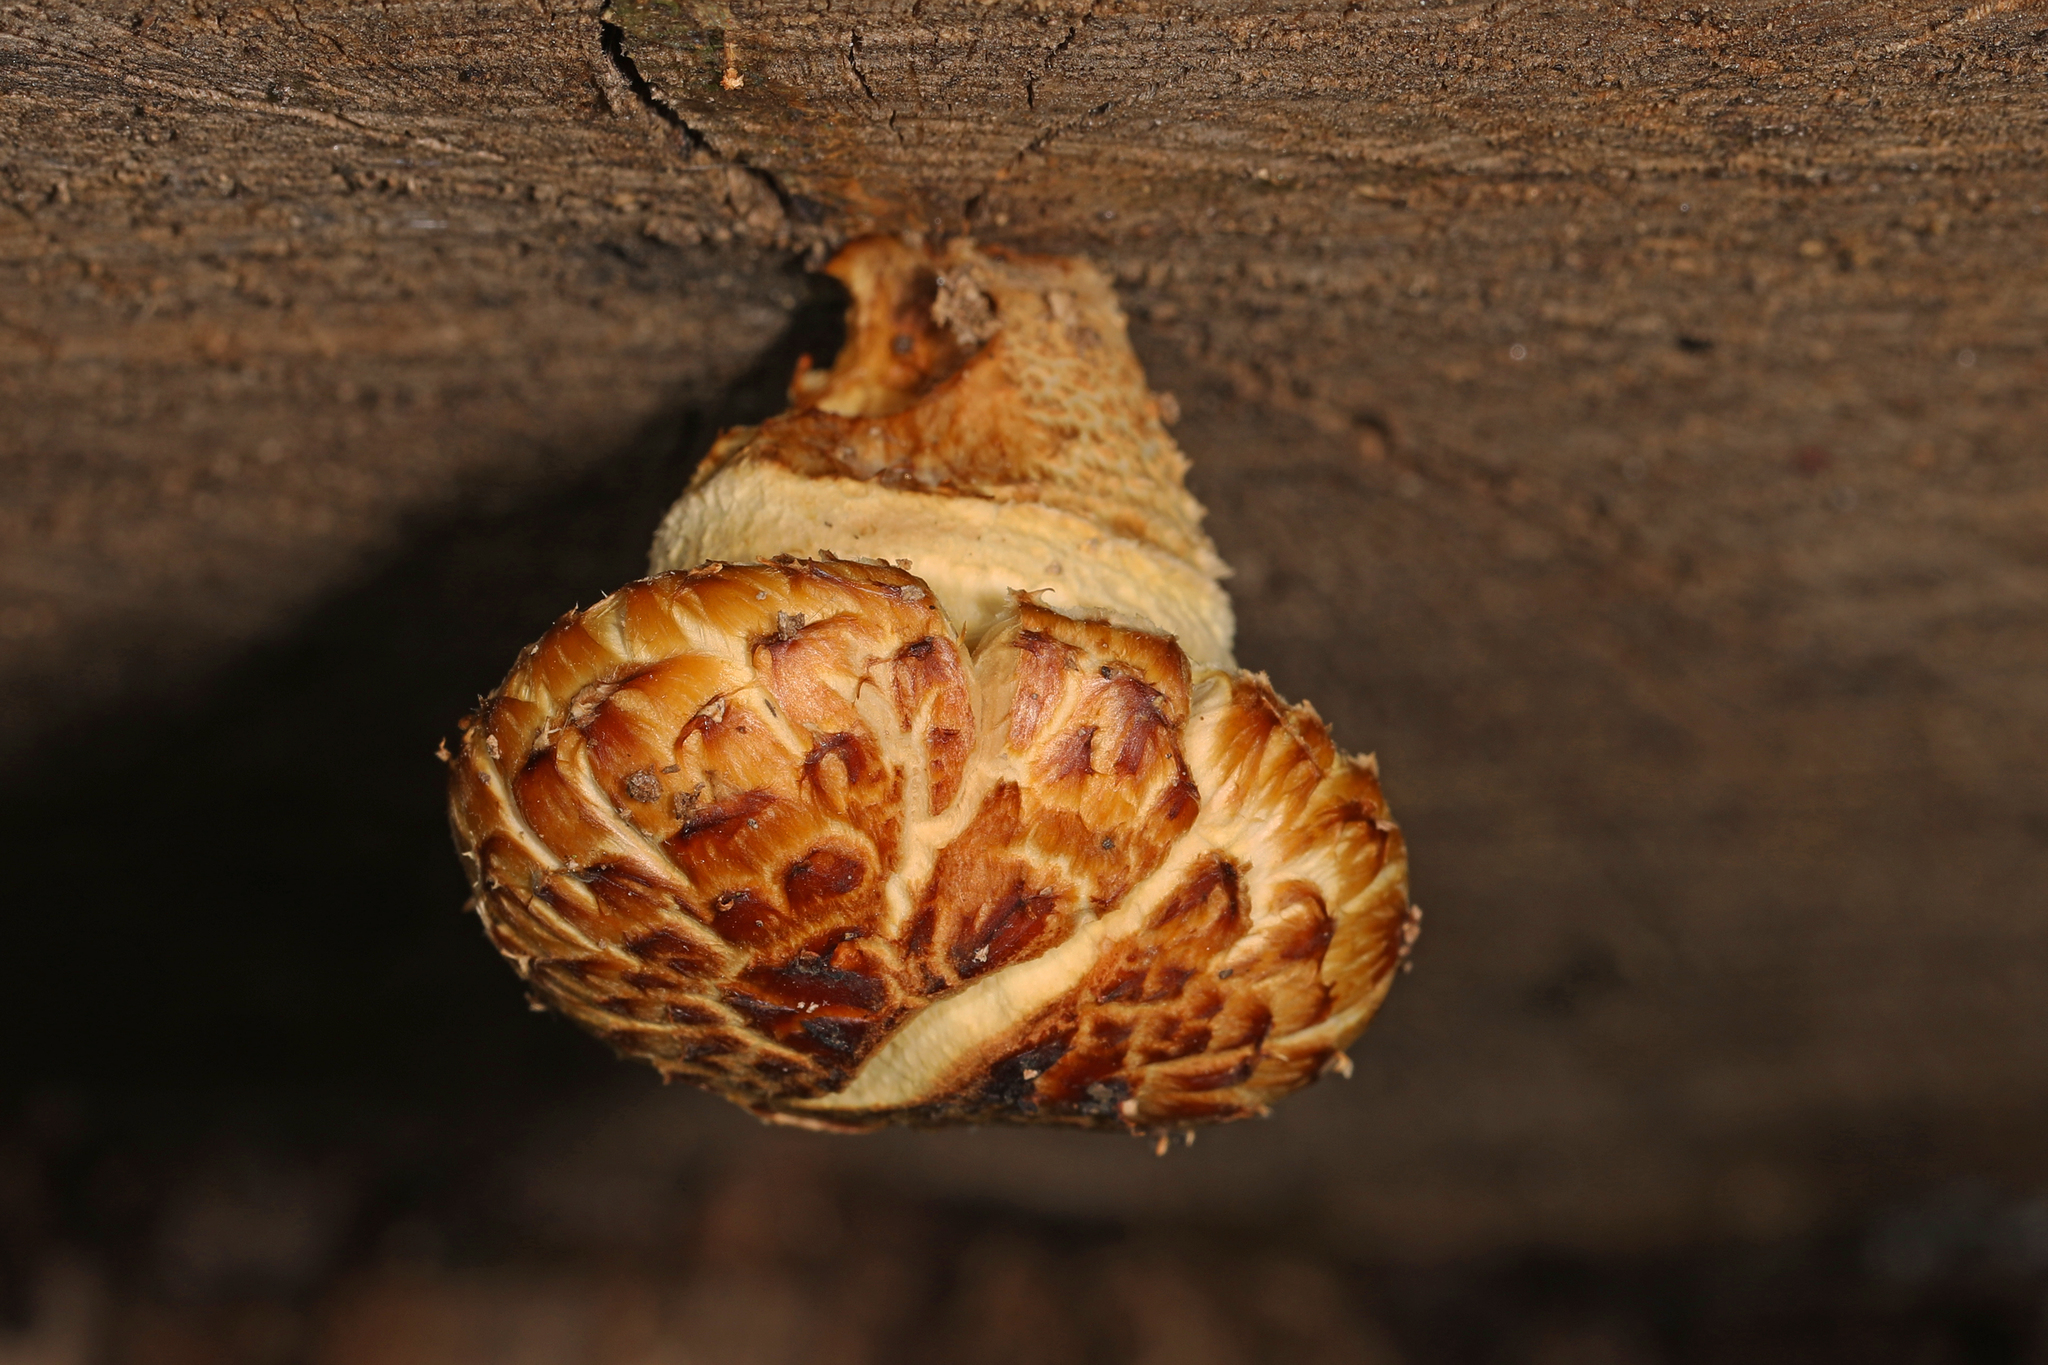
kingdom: Fungi
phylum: Basidiomycota
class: Agaricomycetes
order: Polyporales
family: Polyporaceae
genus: Cerioporus
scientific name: Cerioporus squamosus
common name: Dryad's saddle
